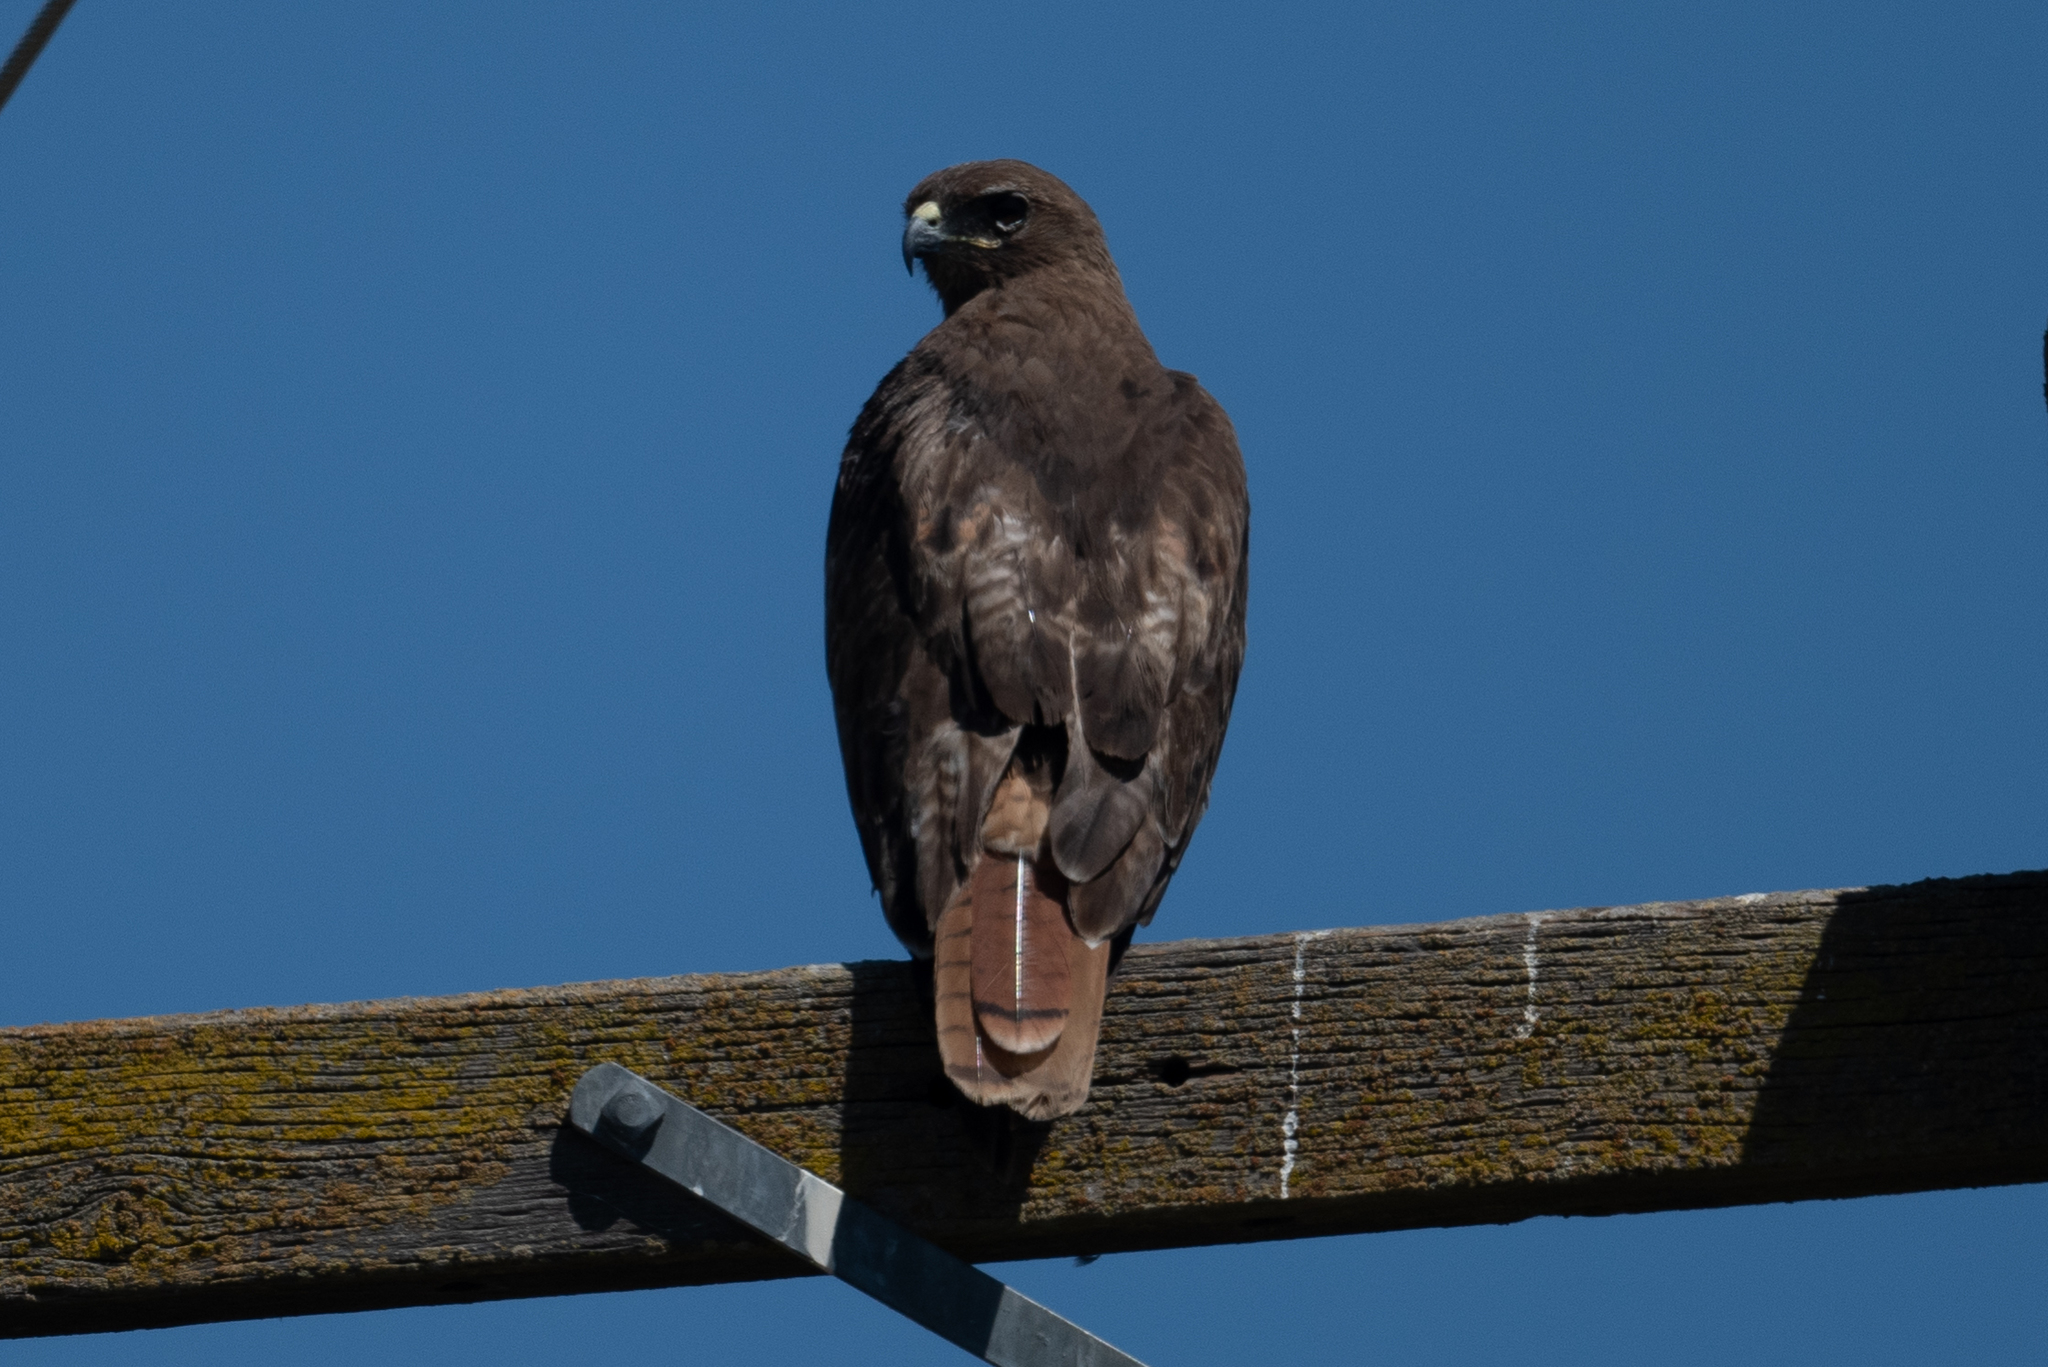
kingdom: Animalia
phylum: Chordata
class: Aves
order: Accipitriformes
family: Accipitridae
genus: Buteo
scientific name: Buteo jamaicensis
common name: Red-tailed hawk
